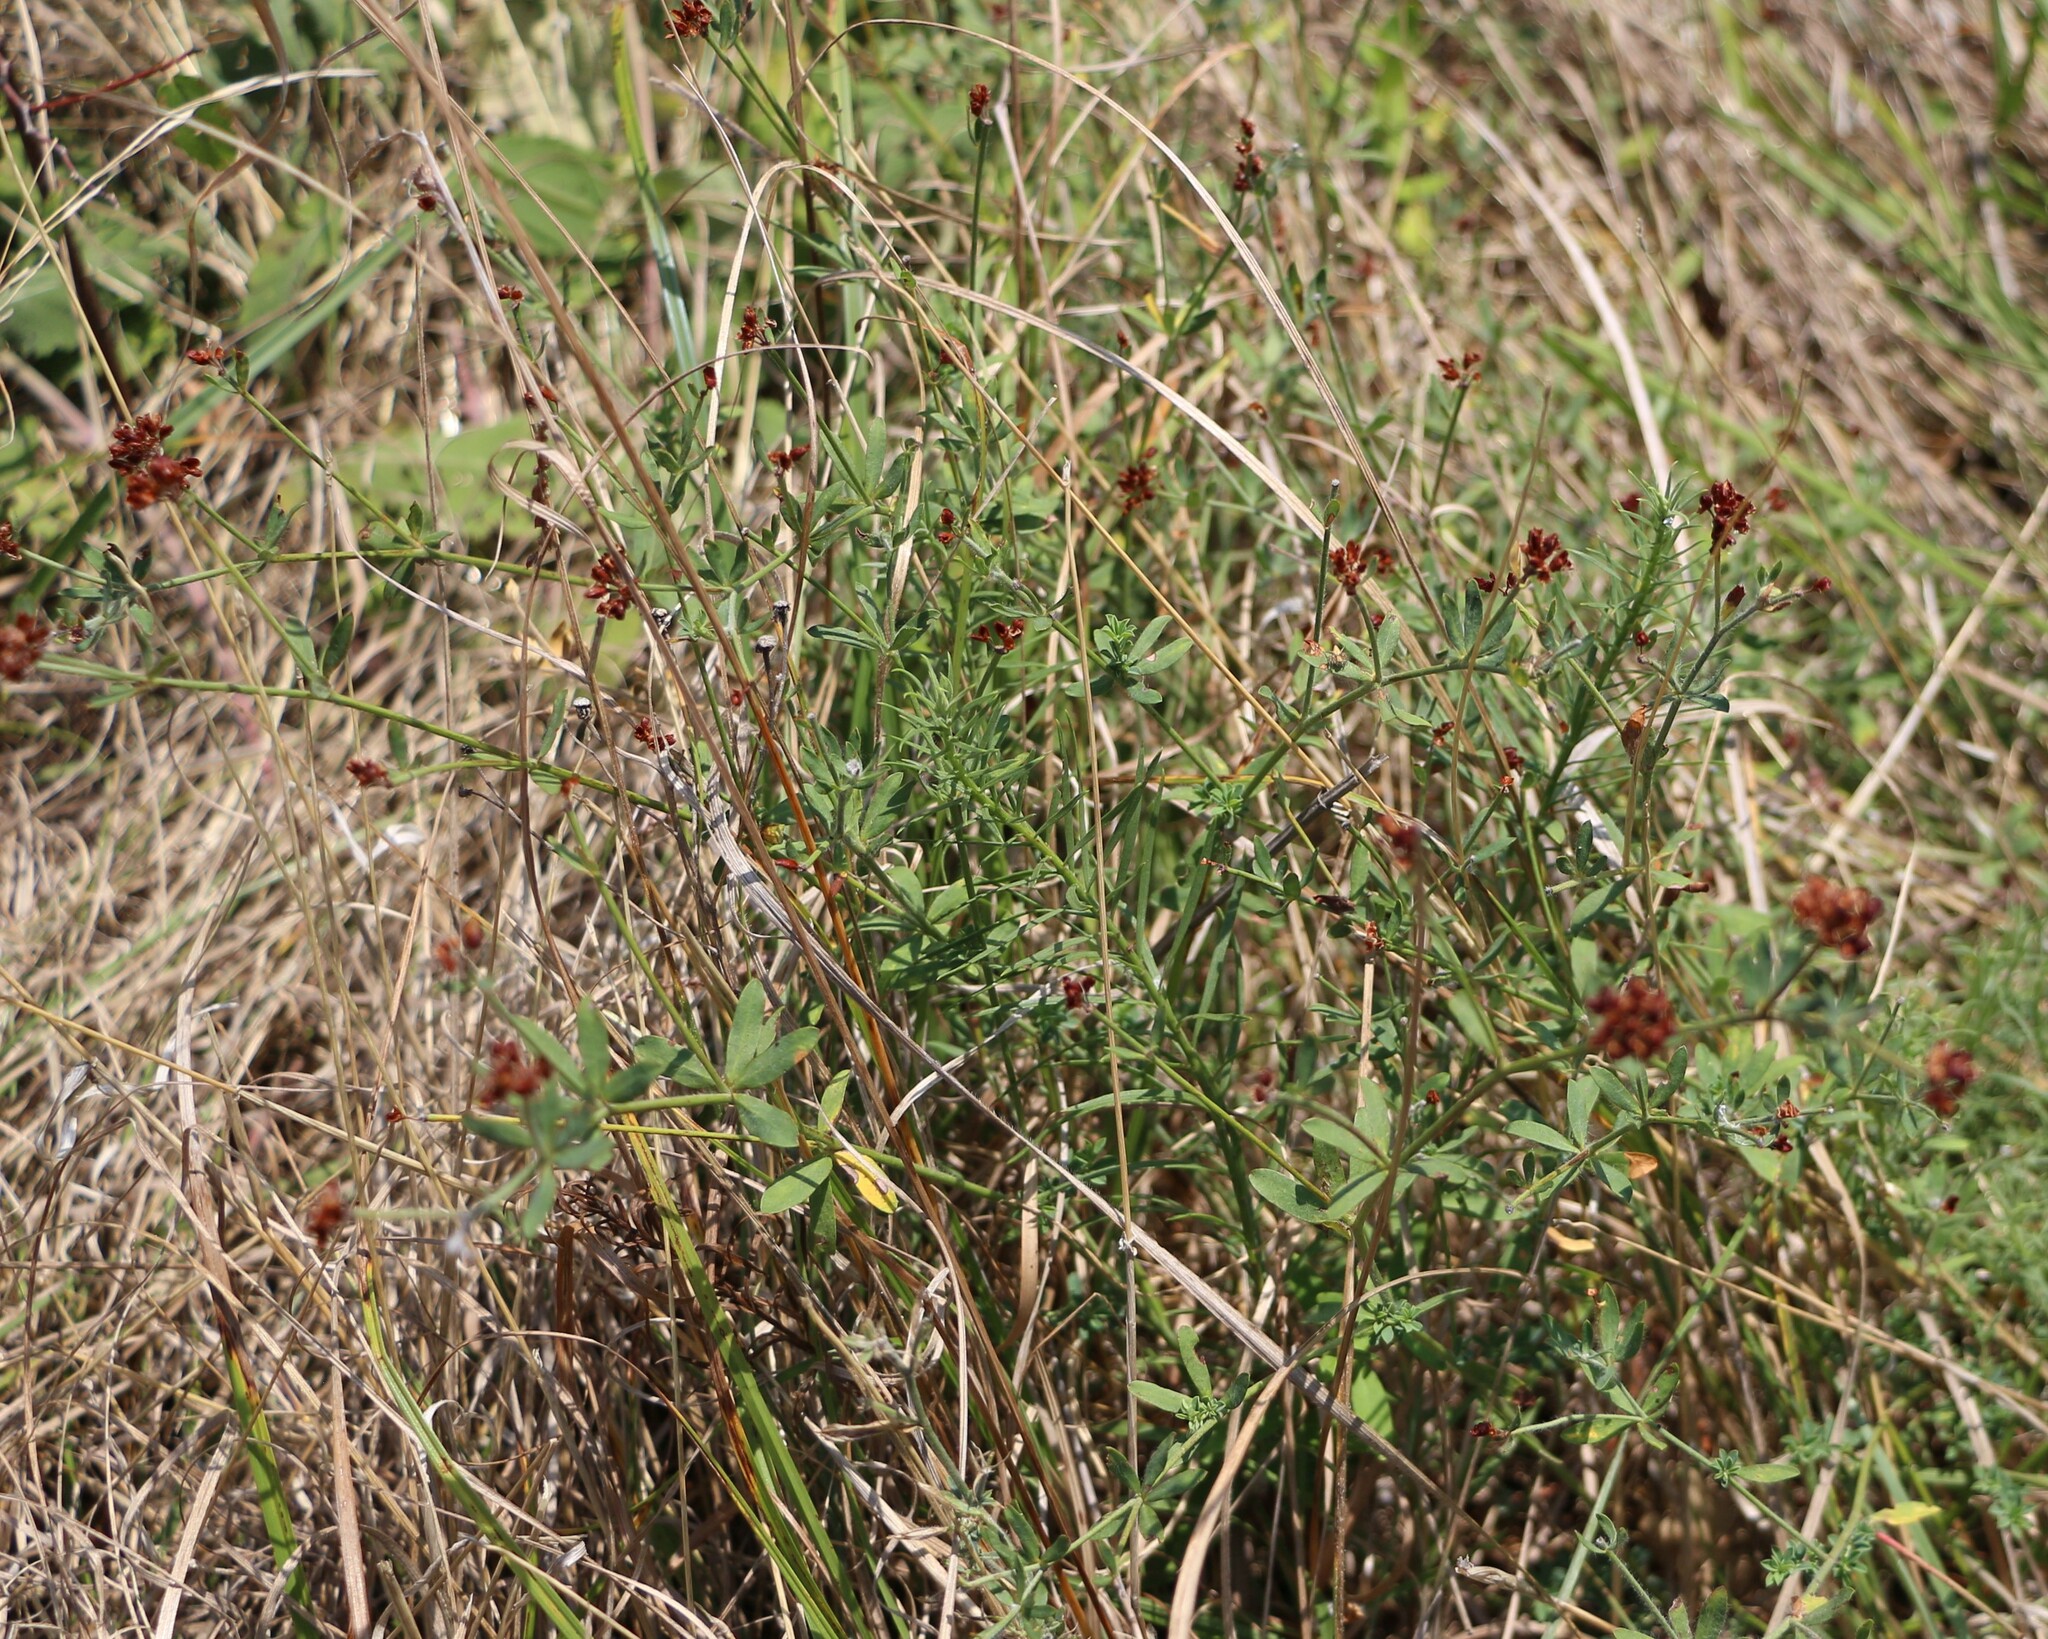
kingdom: Plantae
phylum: Tracheophyta
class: Magnoliopsida
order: Fabales
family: Fabaceae
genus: Lotus
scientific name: Lotus herbaceus
